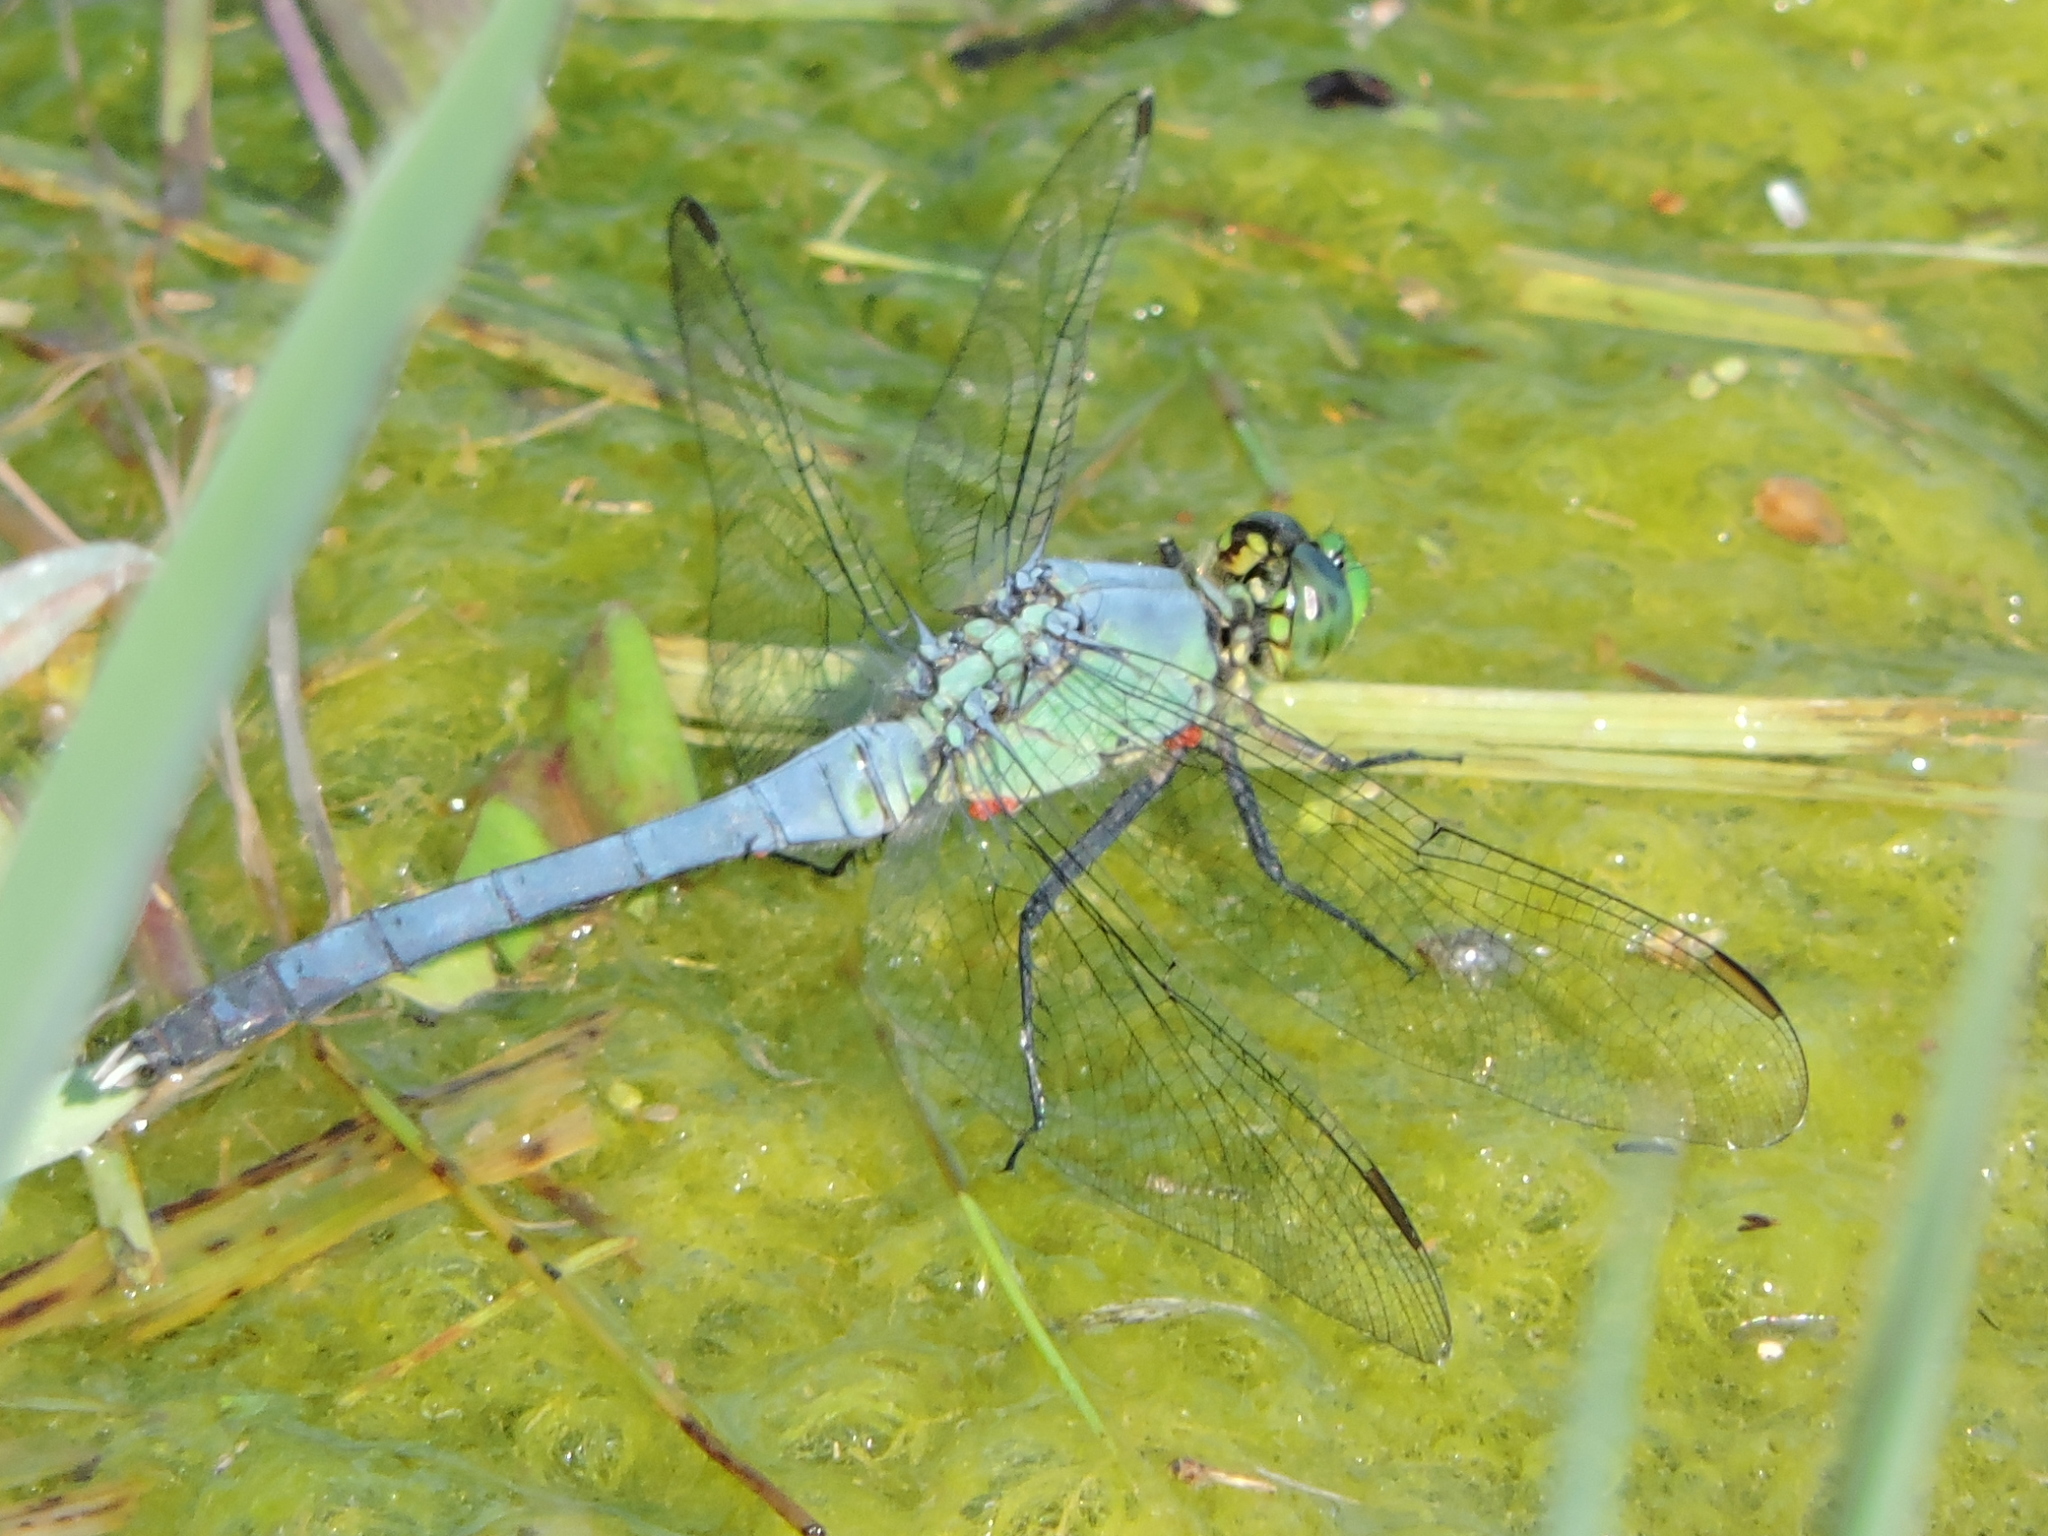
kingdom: Animalia
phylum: Arthropoda
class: Insecta
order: Odonata
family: Libellulidae
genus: Erythemis
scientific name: Erythemis simplicicollis
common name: Eastern pondhawk
